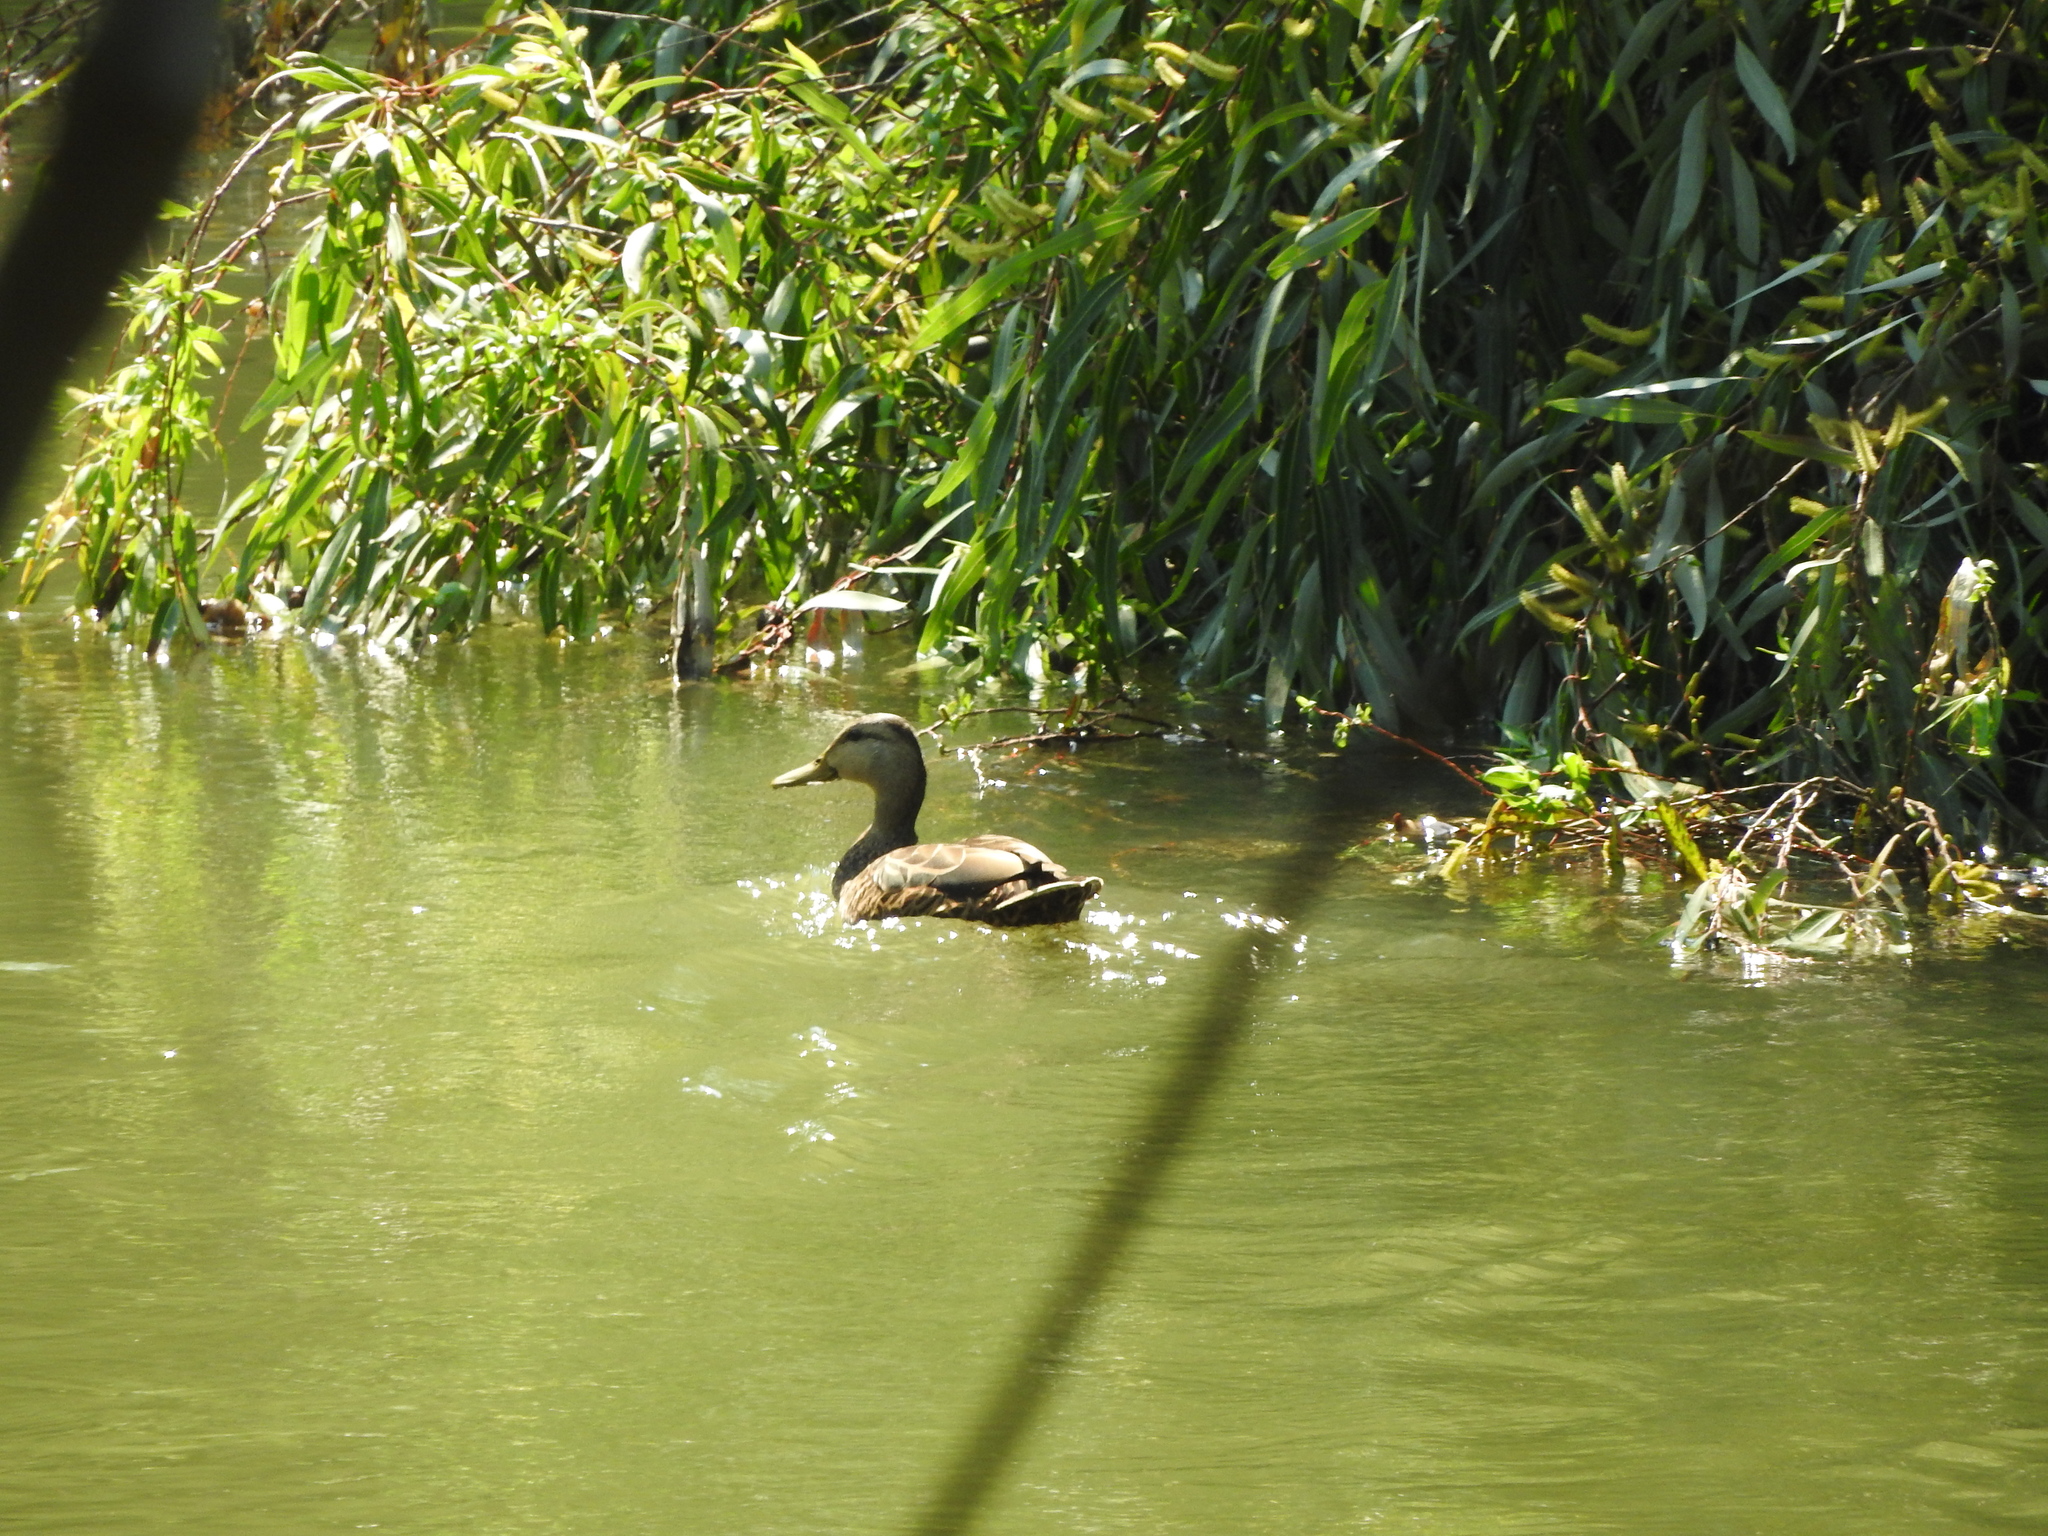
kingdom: Animalia
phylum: Chordata
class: Aves
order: Anseriformes
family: Anatidae
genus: Anas
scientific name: Anas diazi
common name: Mexican duck
